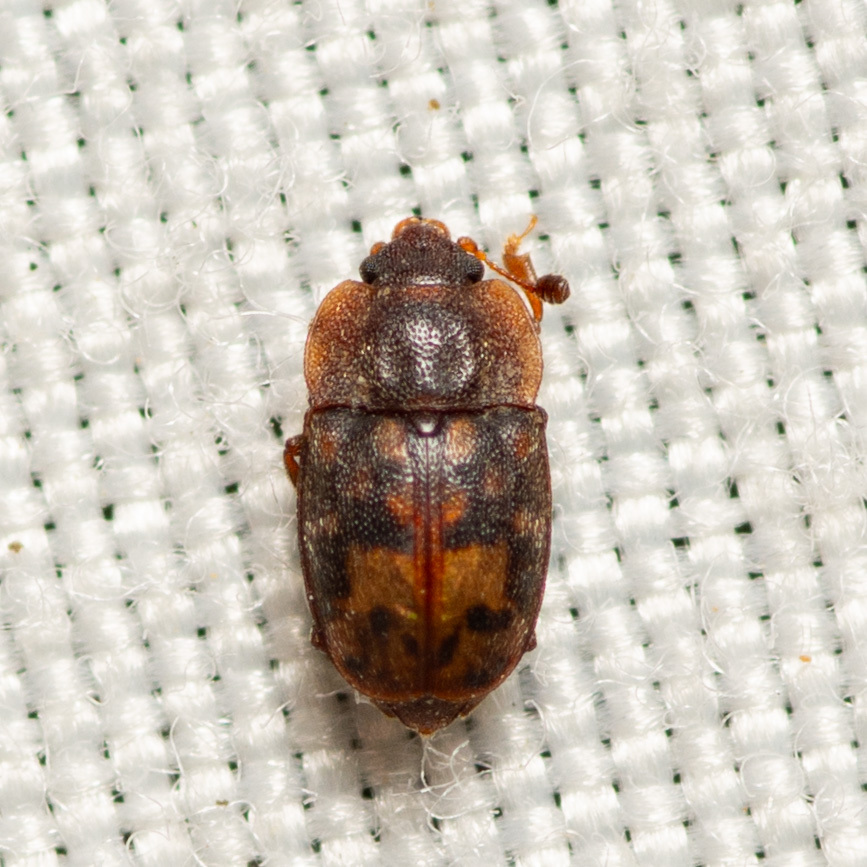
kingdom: Animalia
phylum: Arthropoda
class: Insecta
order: Coleoptera
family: Nitidulidae
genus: Omosita
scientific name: Omosita nearctica
